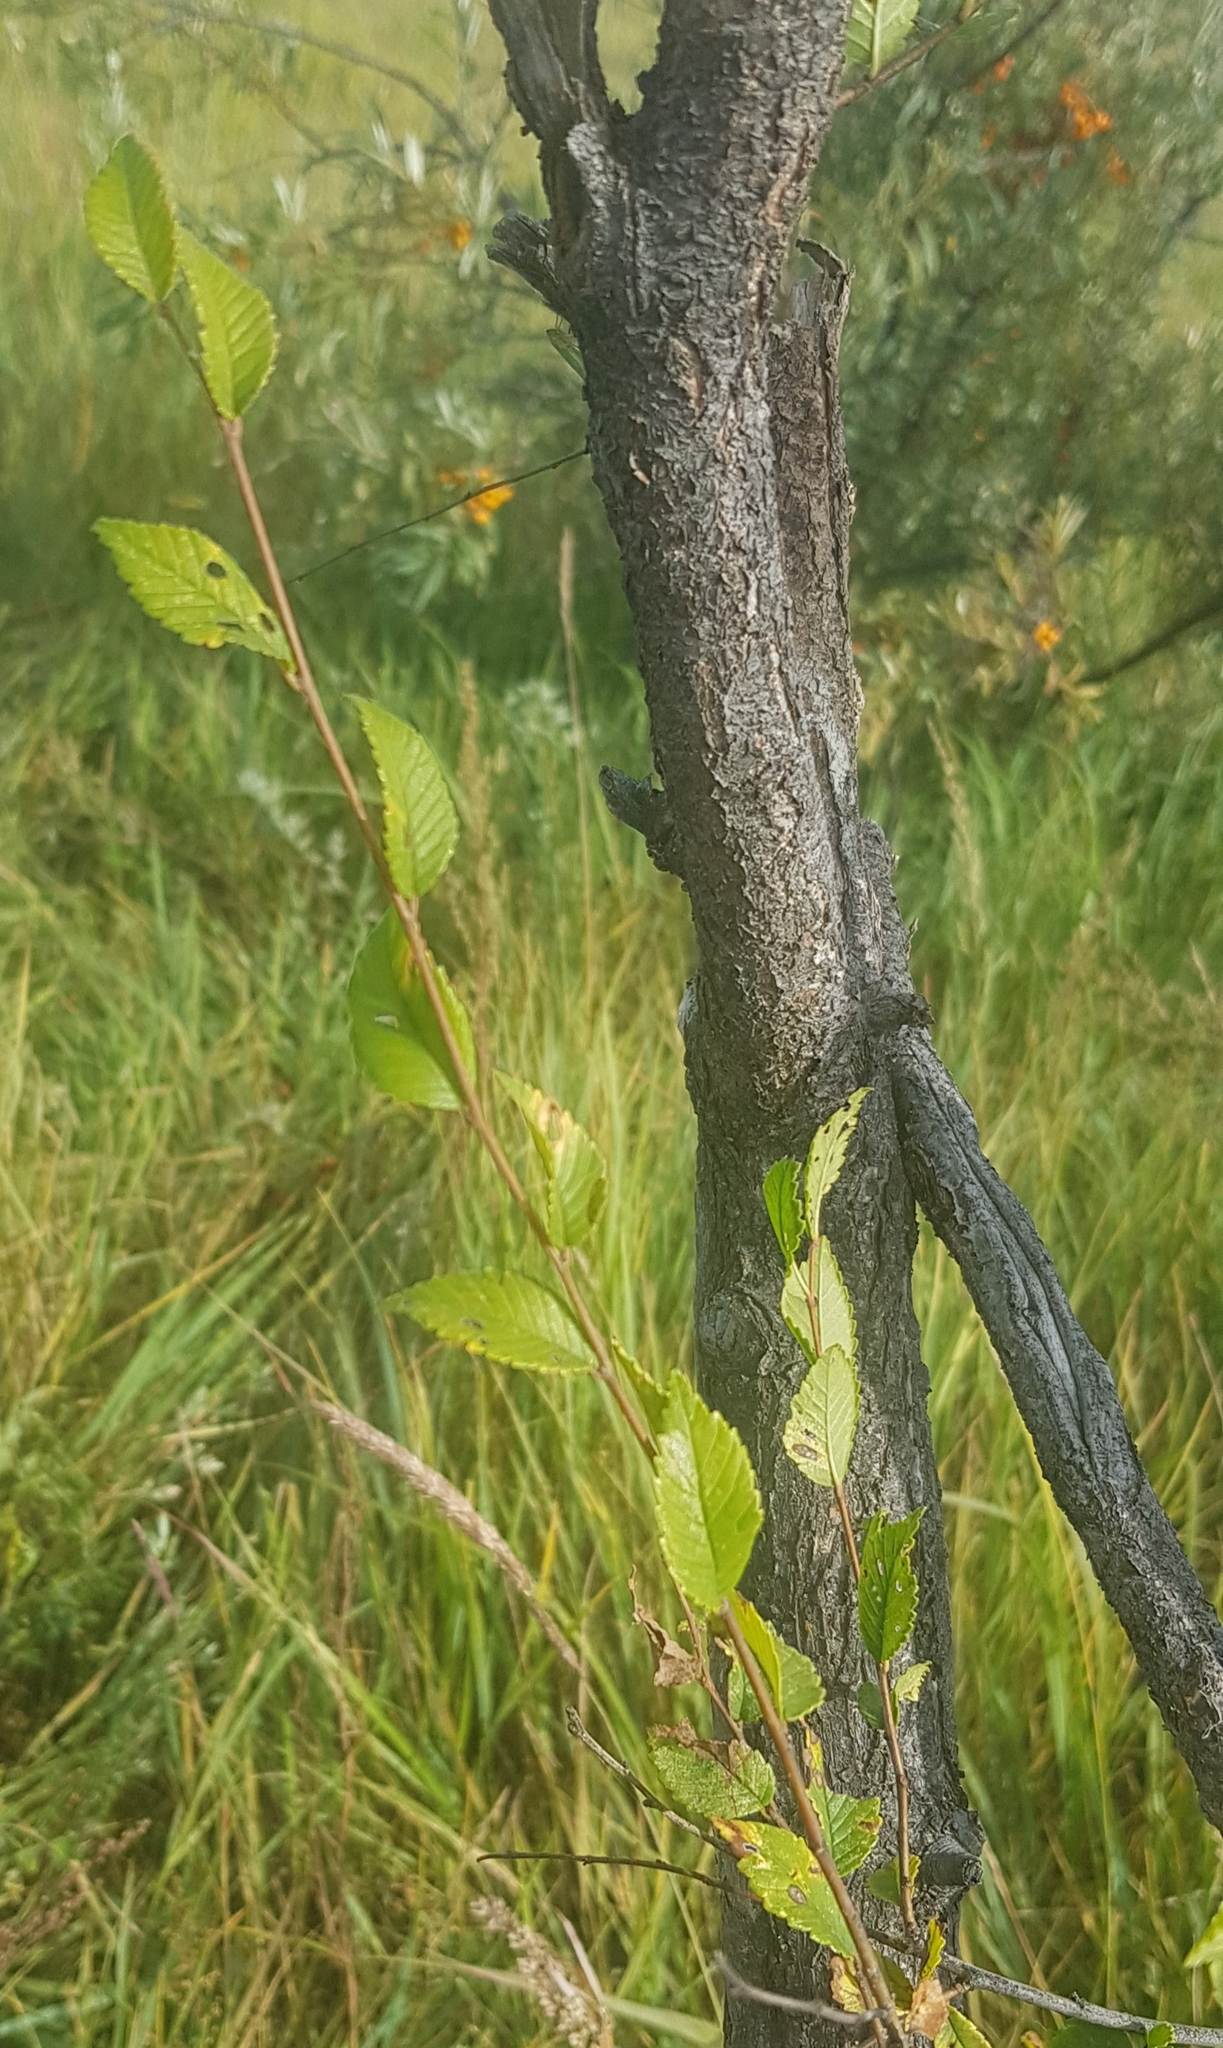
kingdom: Plantae
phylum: Tracheophyta
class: Magnoliopsida
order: Rosales
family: Ulmaceae
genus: Ulmus
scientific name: Ulmus pumila
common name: Siberian elm
